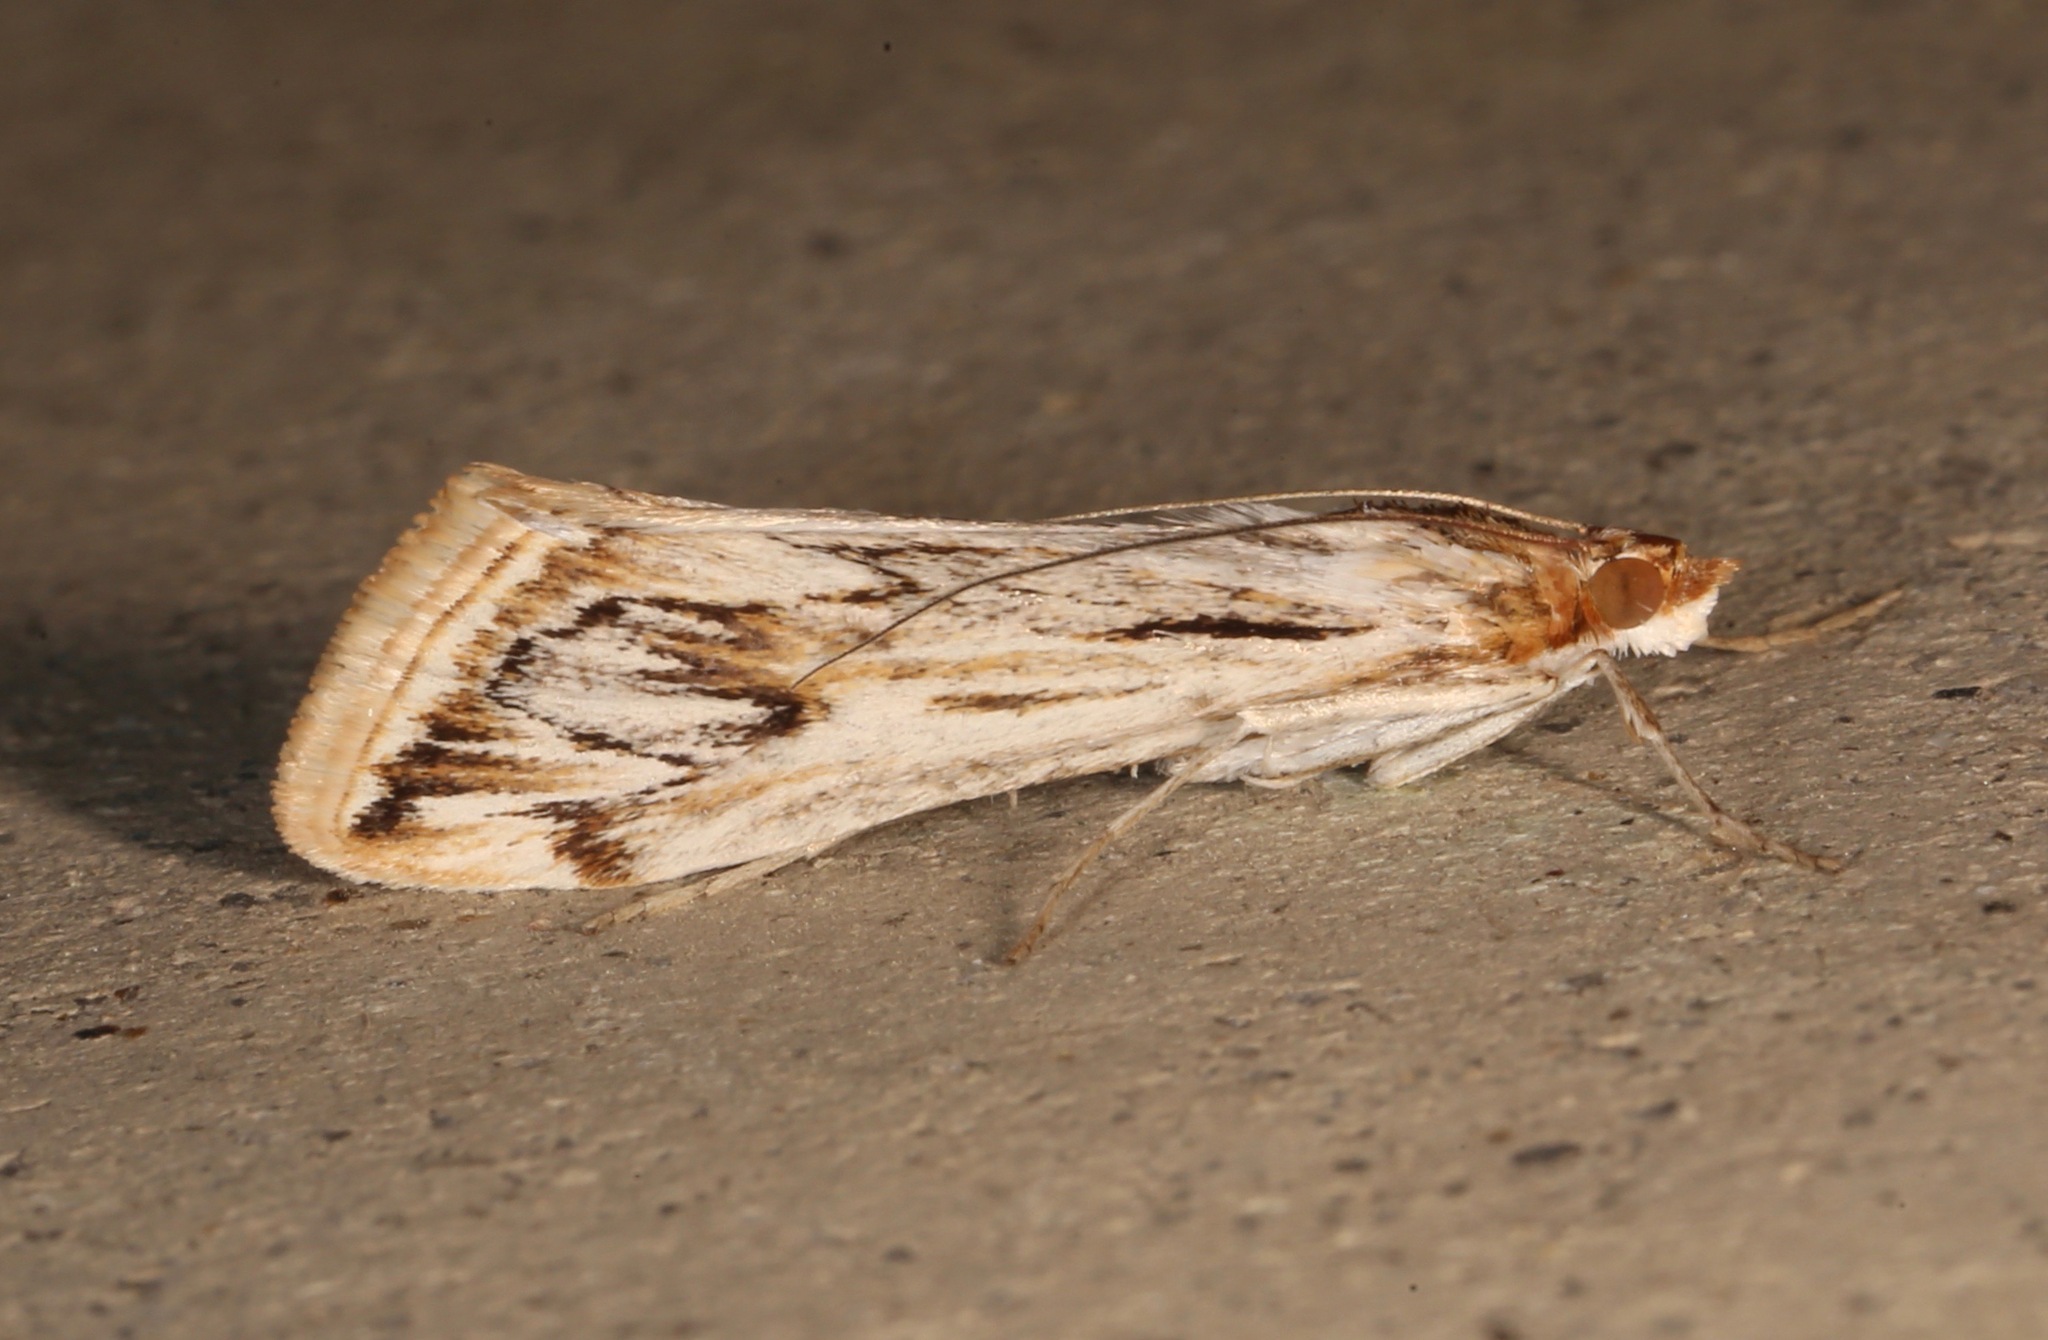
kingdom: Animalia
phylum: Arthropoda
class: Insecta
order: Lepidoptera
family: Crambidae
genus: Loxostege
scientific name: Loxostege oberthuralis
